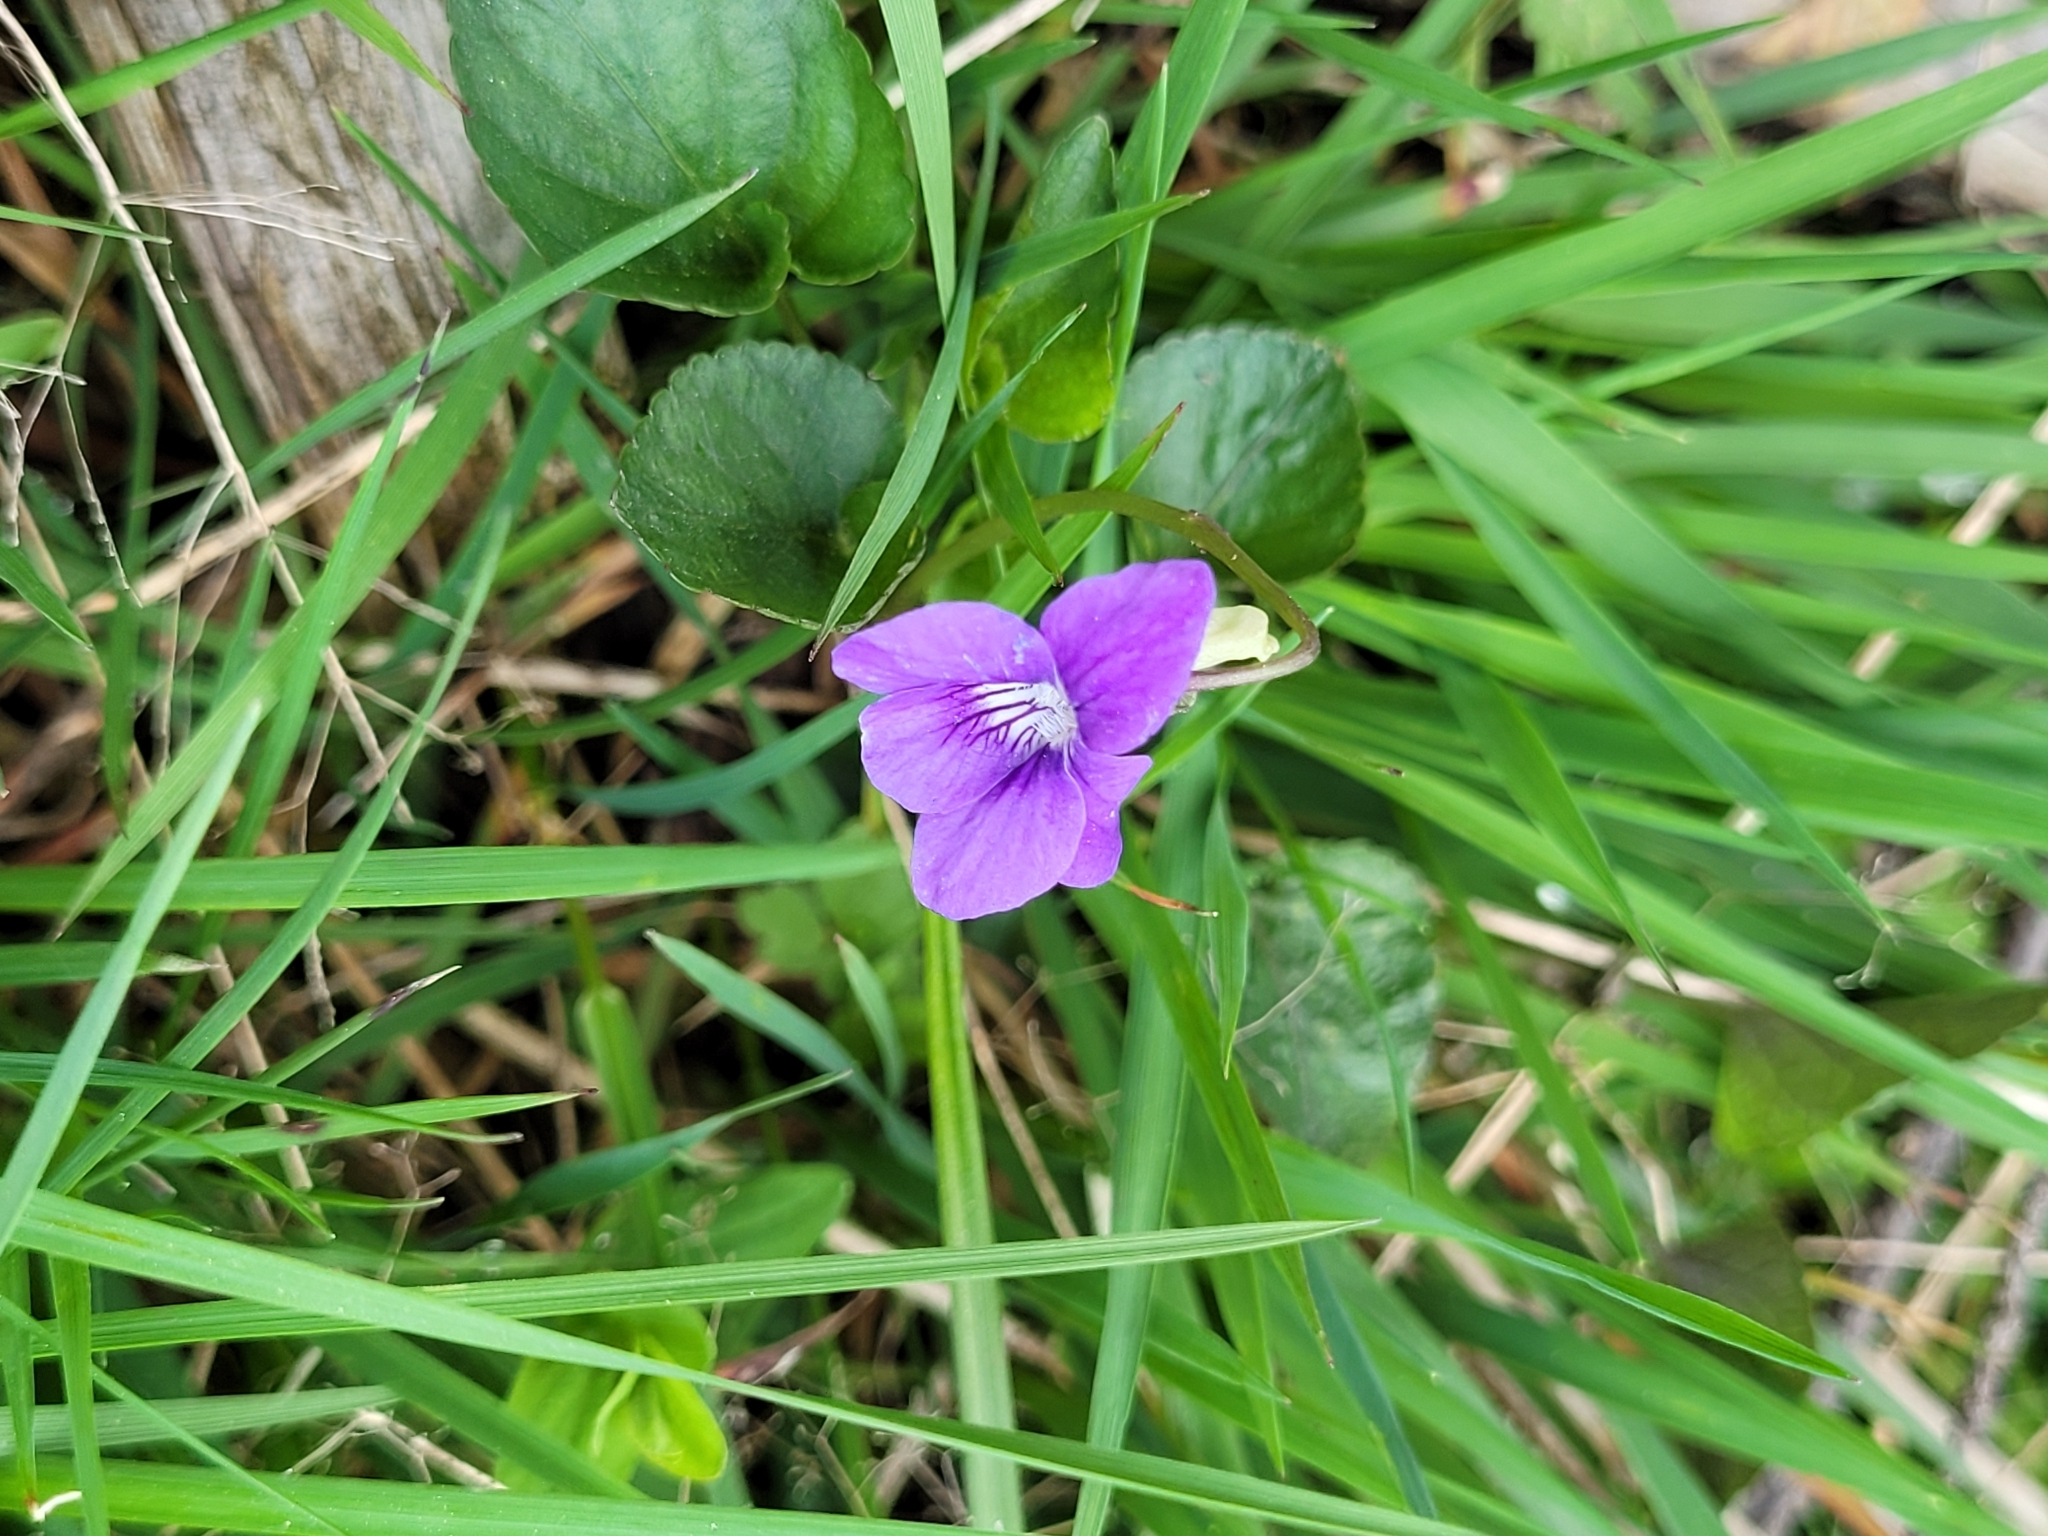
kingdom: Plantae
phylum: Tracheophyta
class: Magnoliopsida
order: Malpighiales
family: Violaceae
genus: Viola
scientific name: Viola riviniana
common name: Common dog-violet
